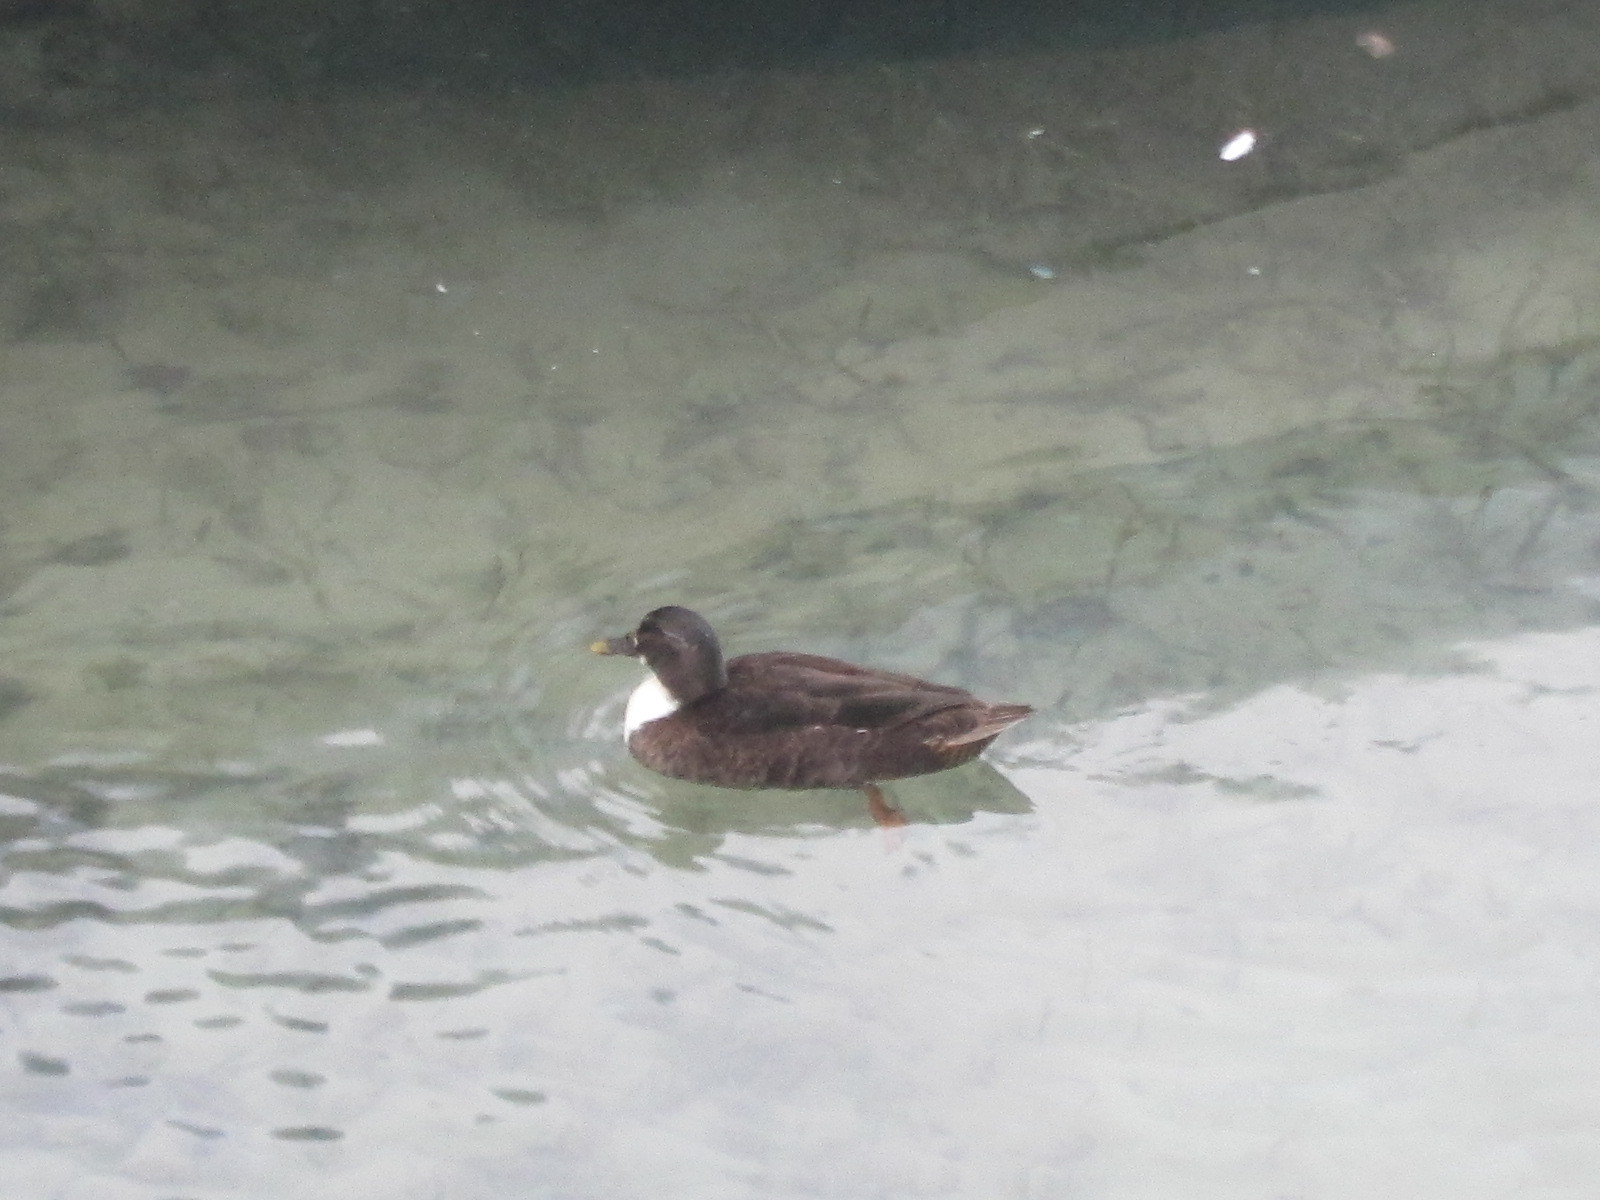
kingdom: Animalia
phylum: Chordata
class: Aves
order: Anseriformes
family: Anatidae
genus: Anas
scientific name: Anas platyrhynchos
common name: Mallard
